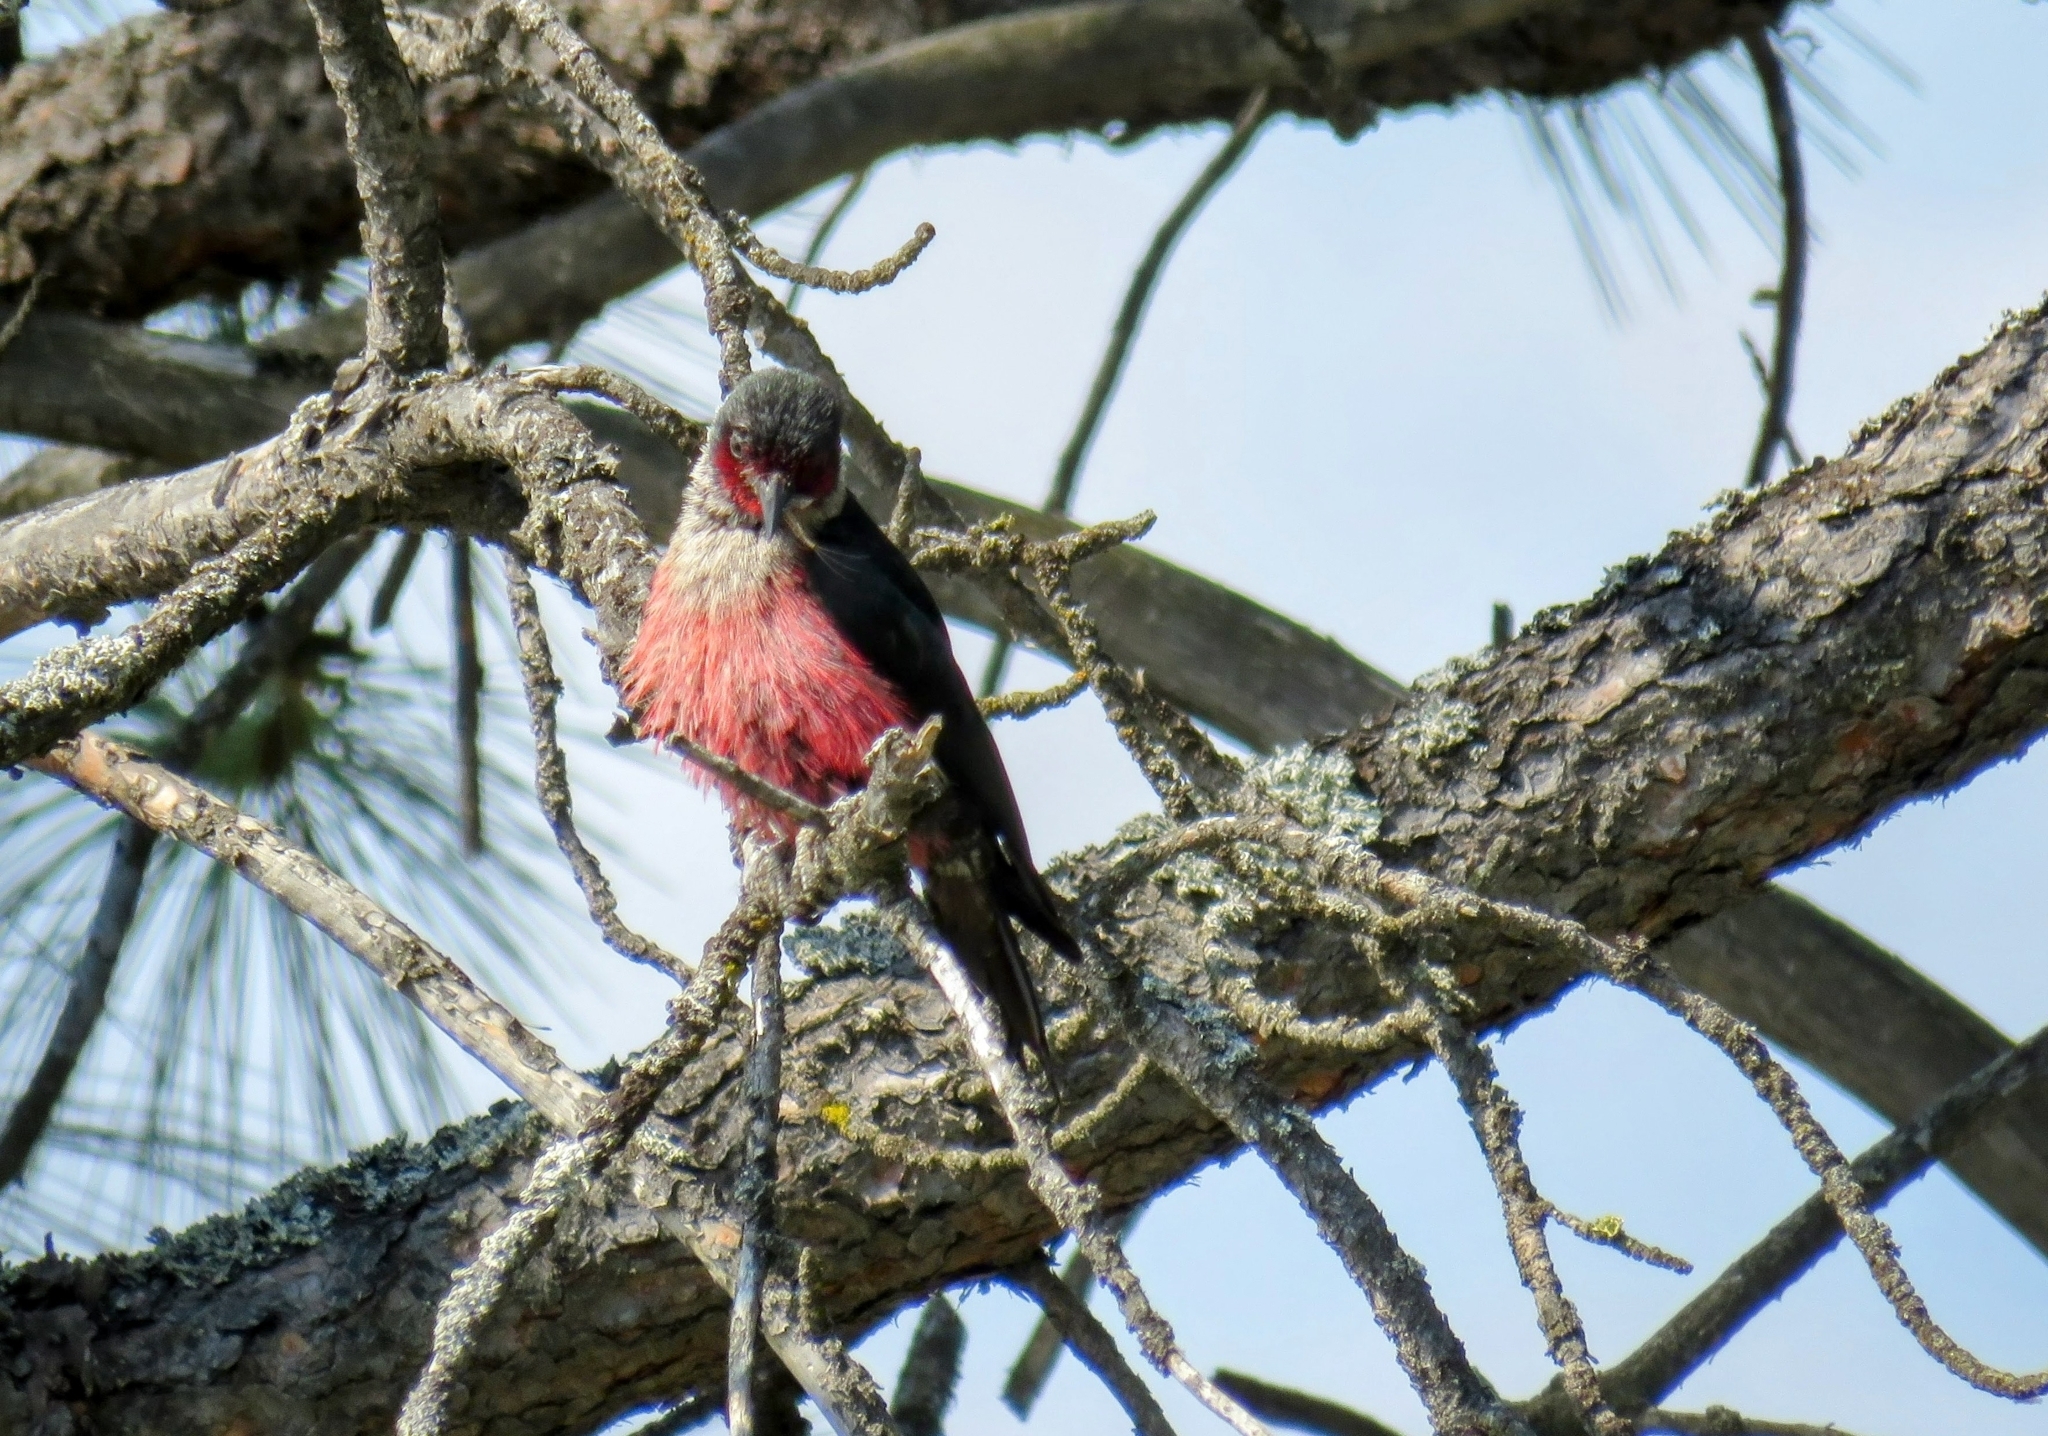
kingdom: Animalia
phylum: Chordata
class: Aves
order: Piciformes
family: Picidae
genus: Melanerpes
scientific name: Melanerpes lewis
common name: Lewis's woodpecker
